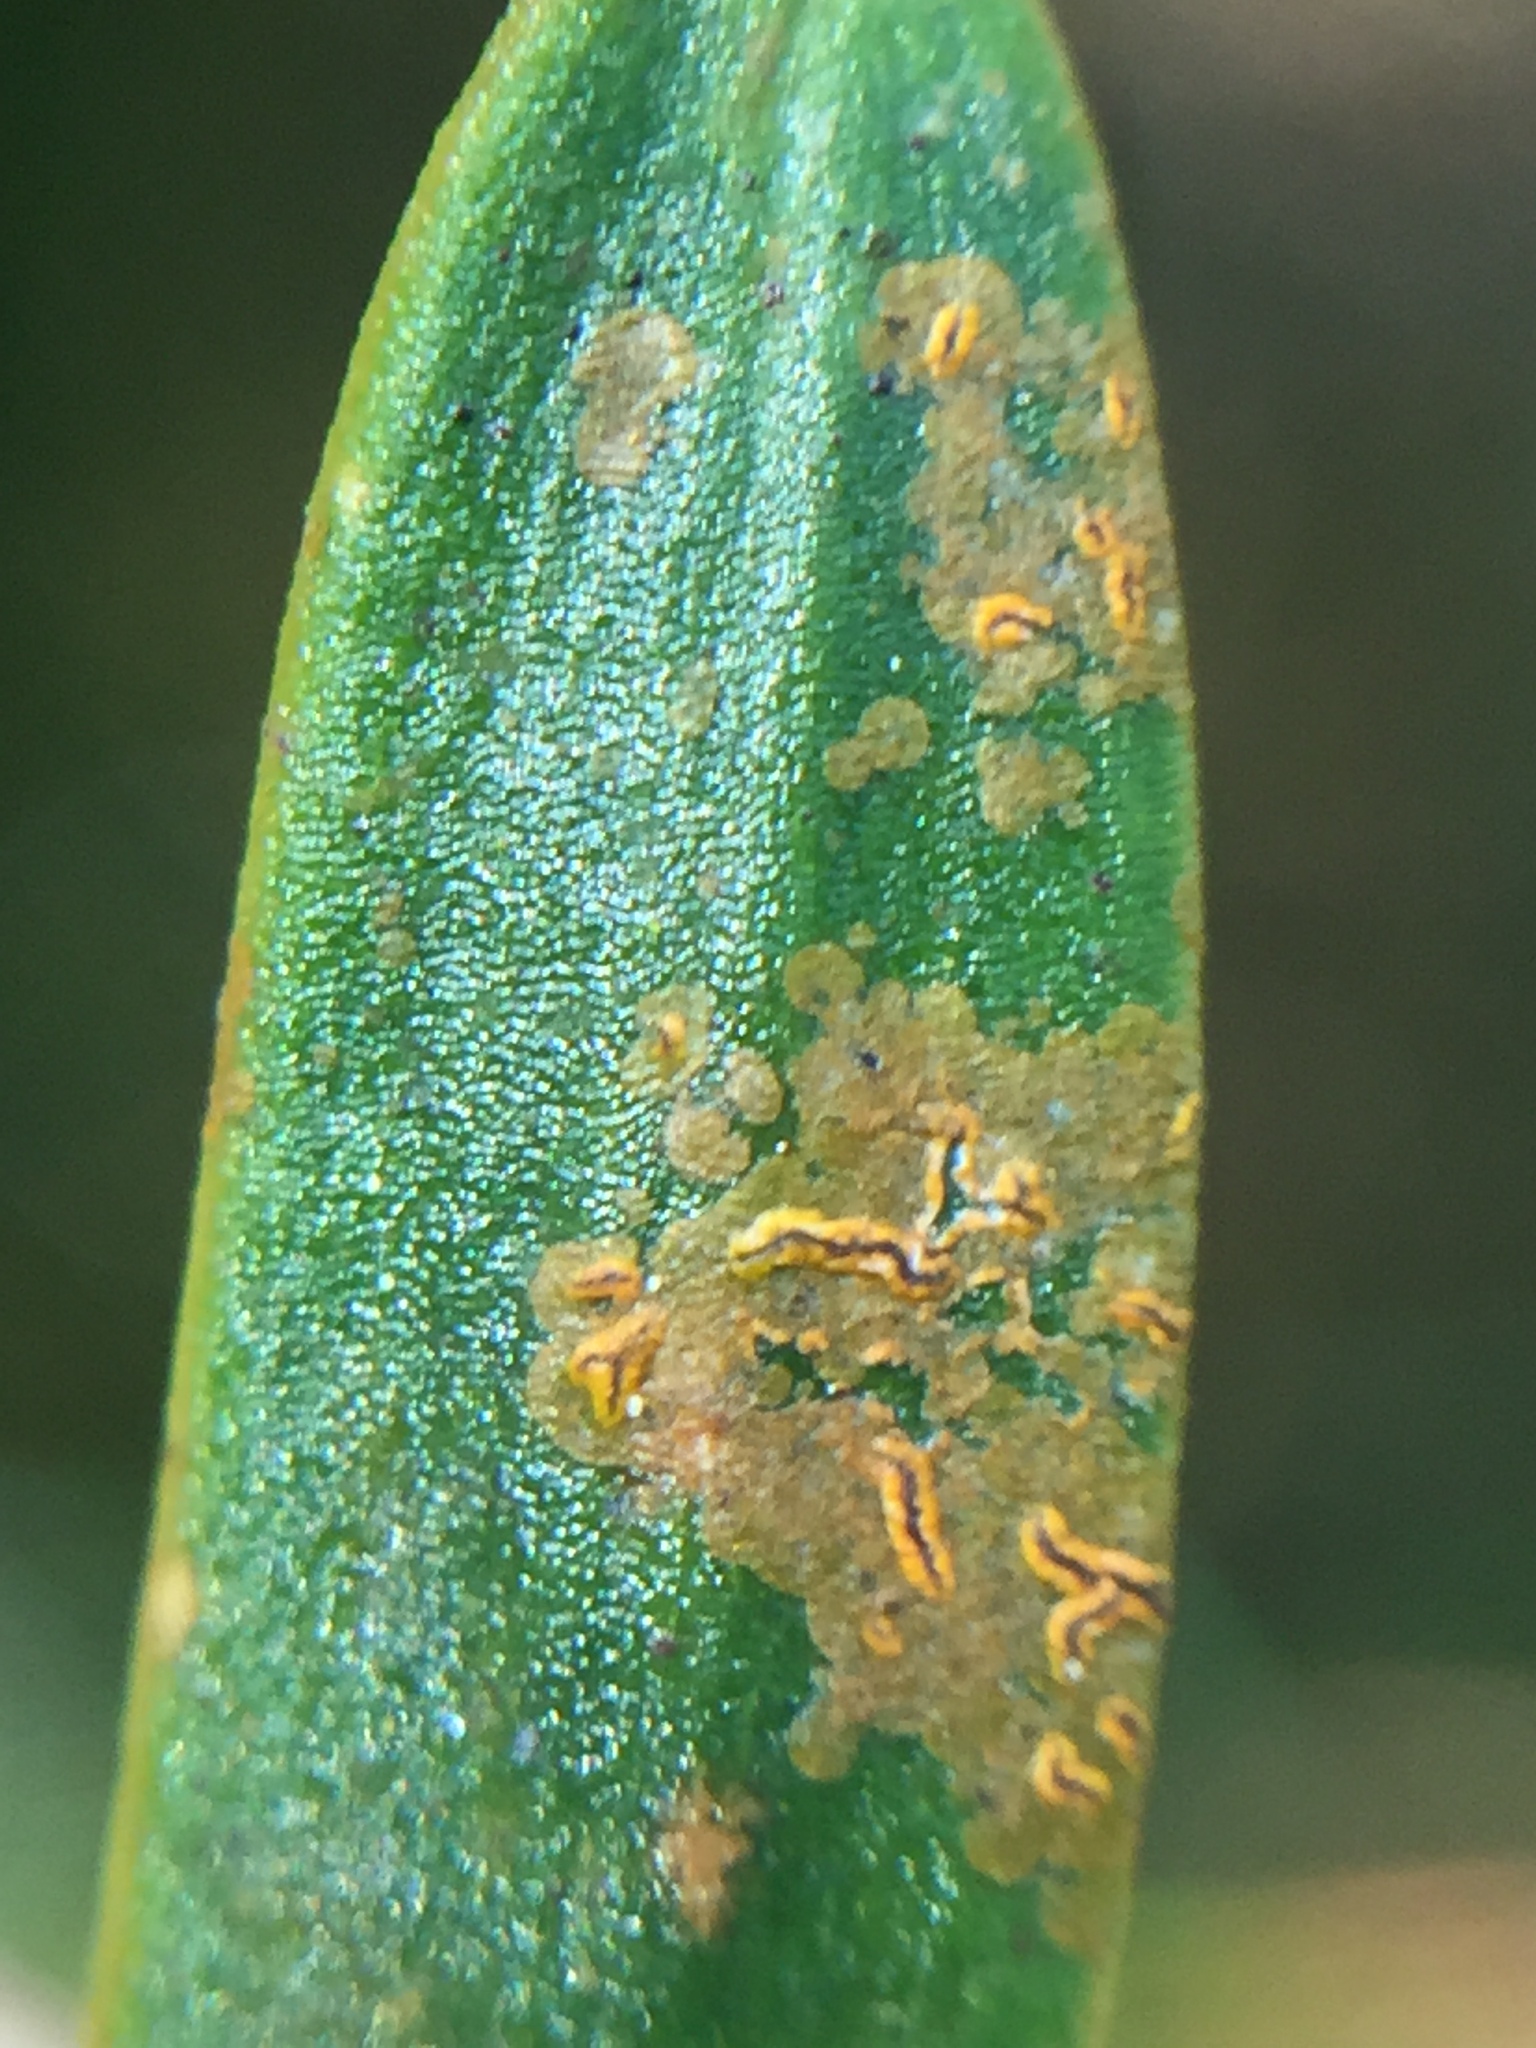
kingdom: Fungi
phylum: Ascomycota
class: Arthoniomycetes
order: Arthoniales
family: Roccellaceae
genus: Enterographa
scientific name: Enterographa bella
